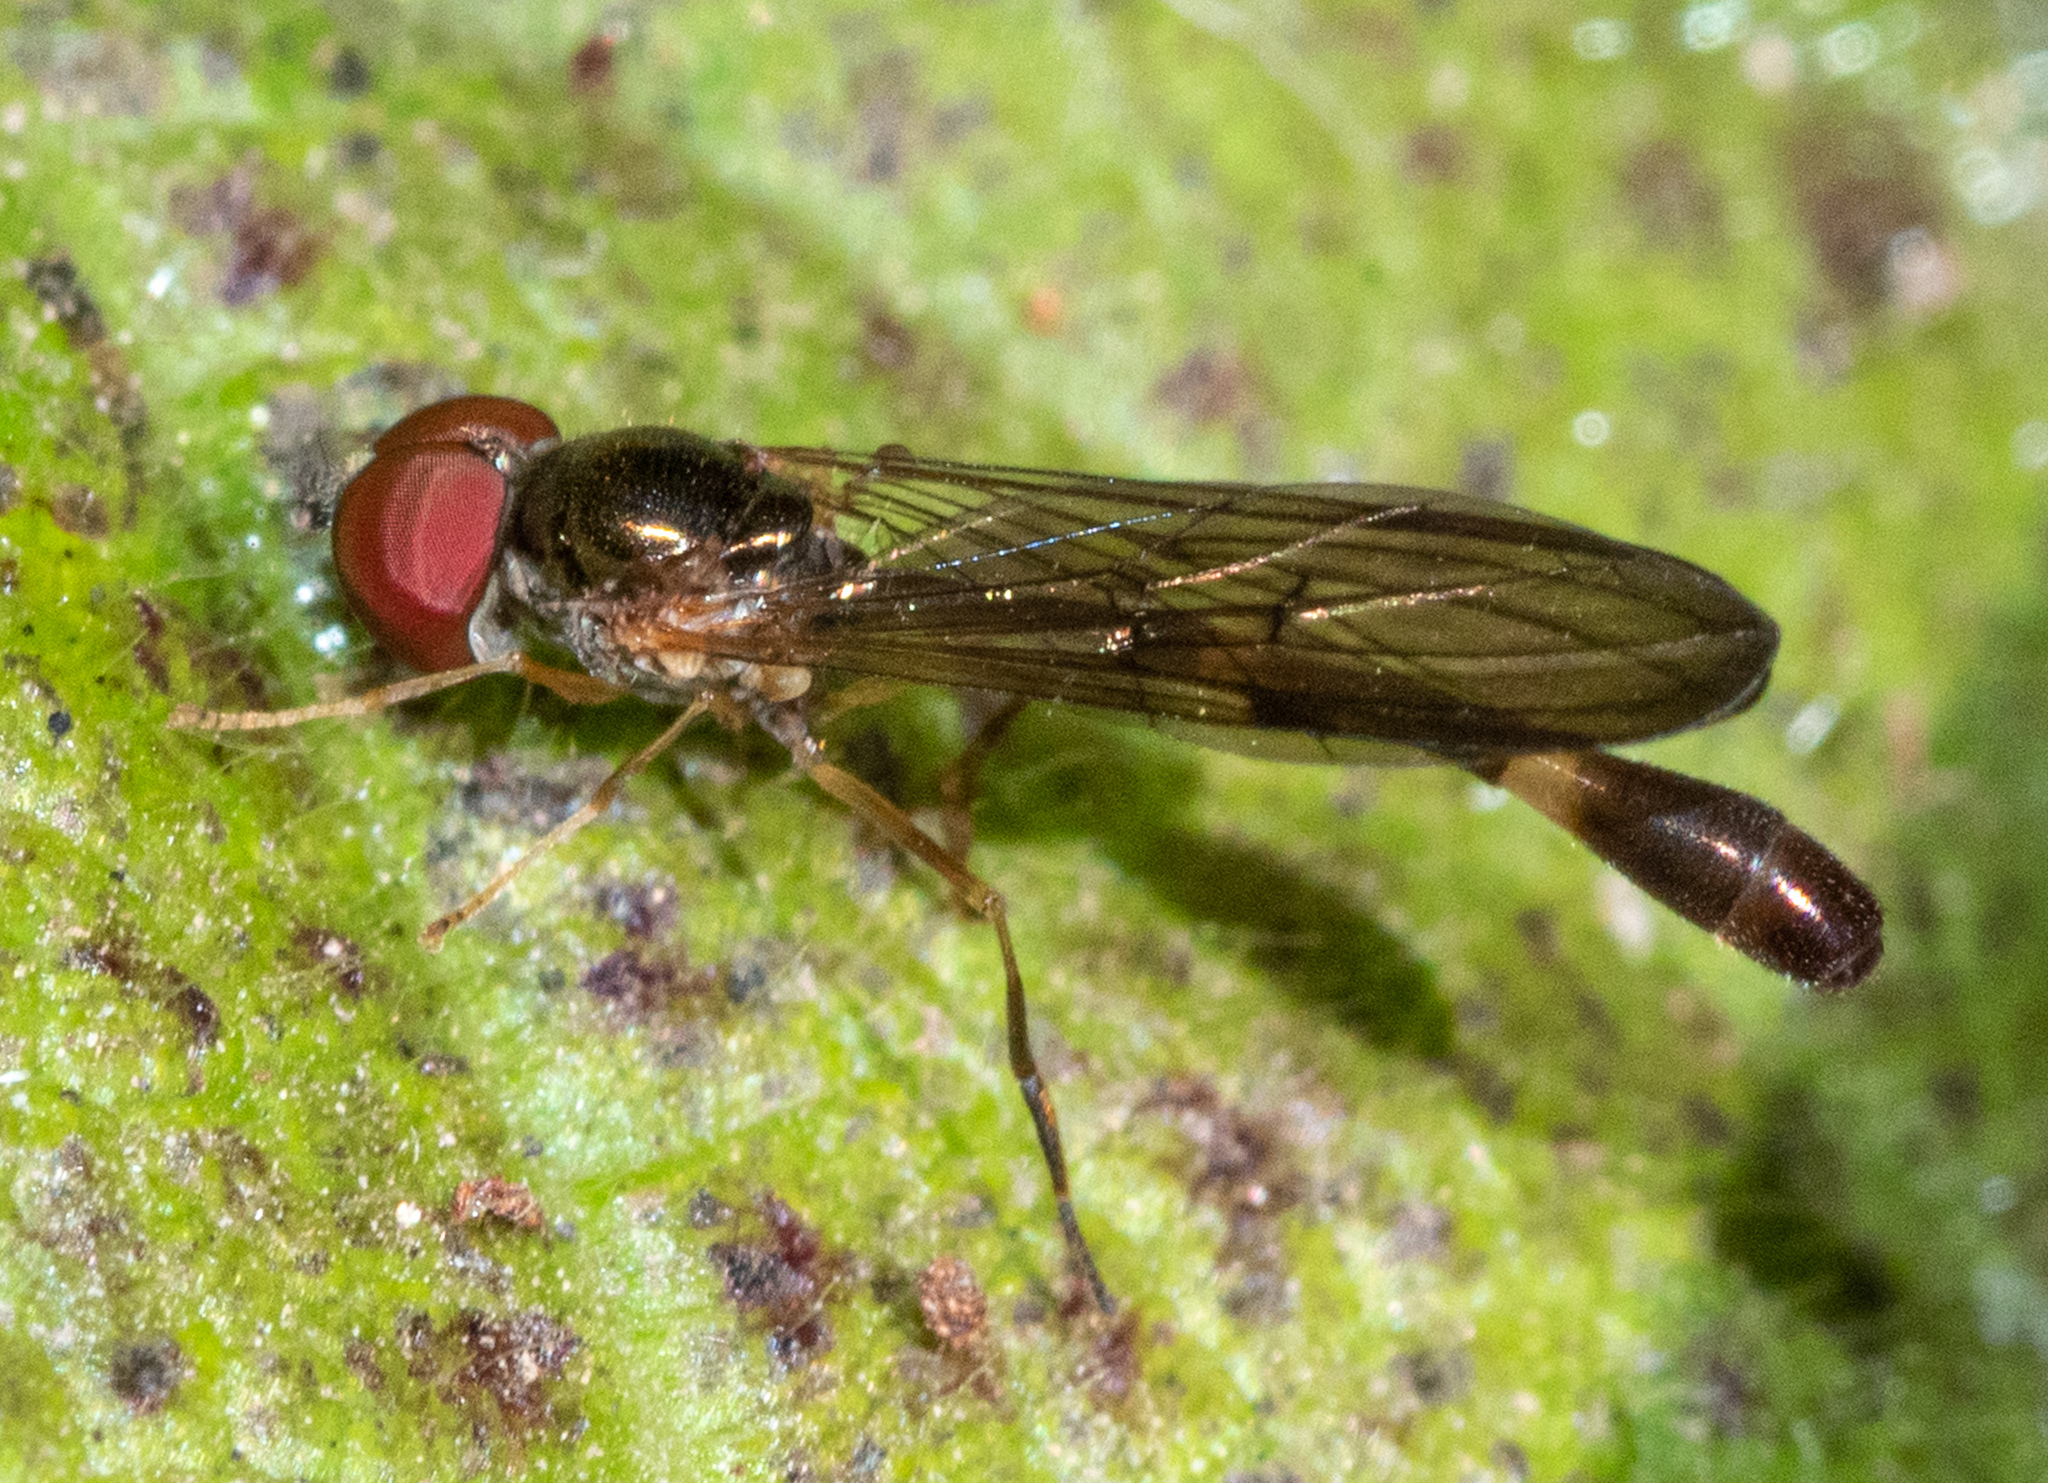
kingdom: Animalia
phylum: Arthropoda
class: Insecta
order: Diptera
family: Syrphidae
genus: Baccha
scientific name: Baccha cognata
